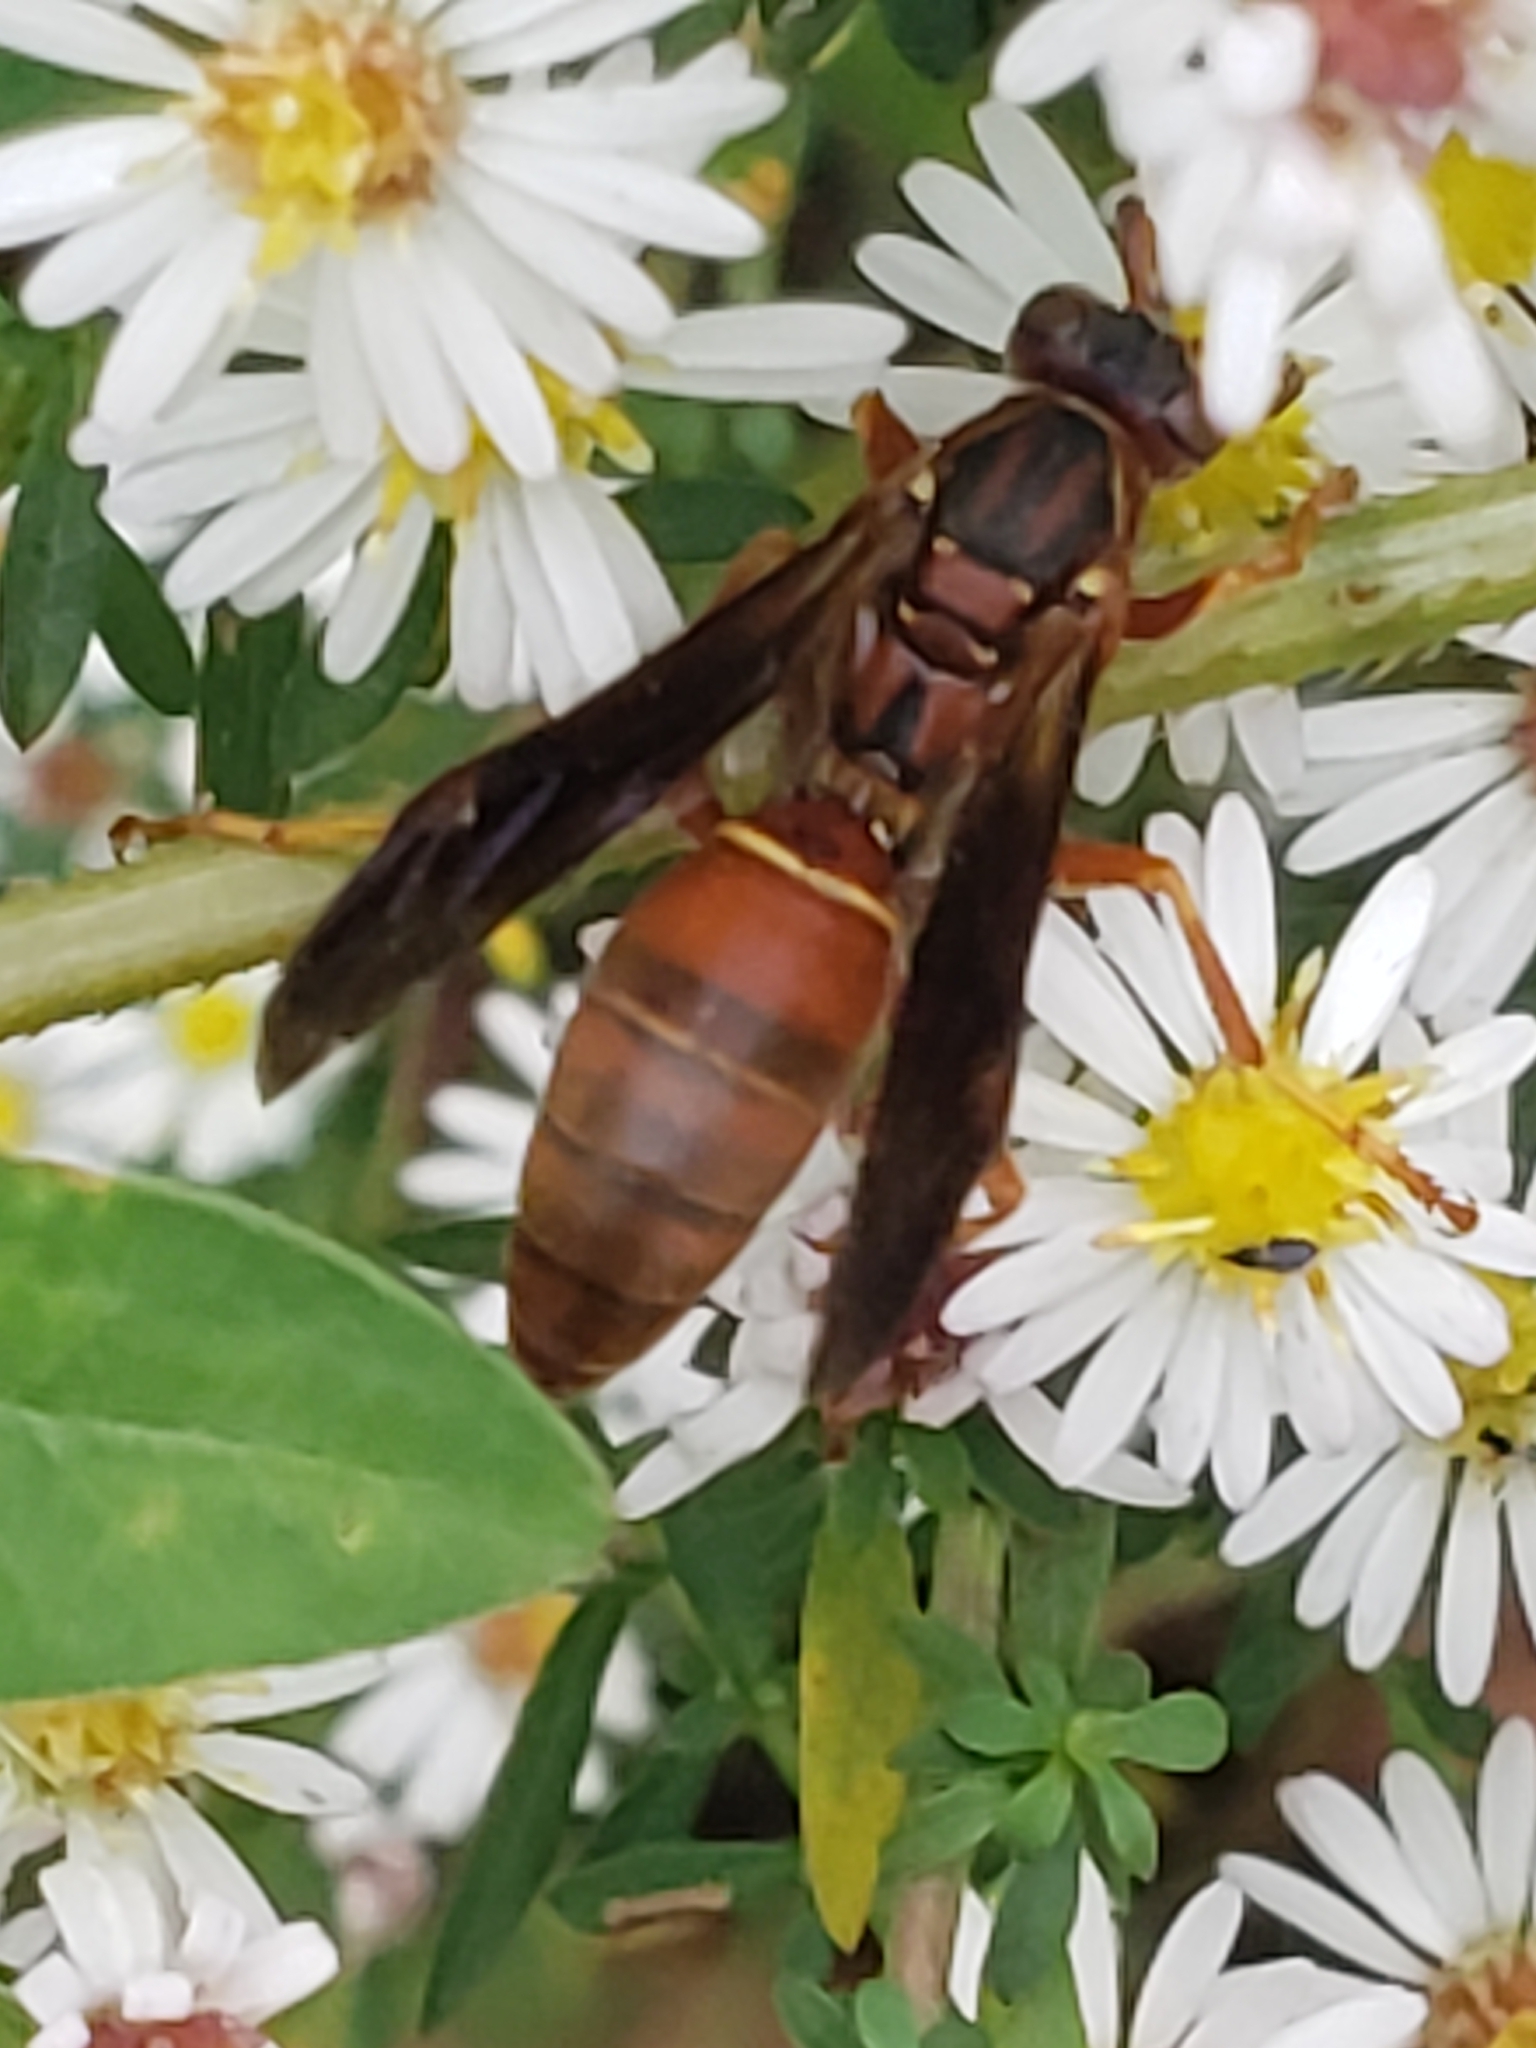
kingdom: Animalia
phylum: Arthropoda
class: Insecta
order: Hymenoptera
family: Vespidae
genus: Fuscopolistes
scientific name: Fuscopolistes
